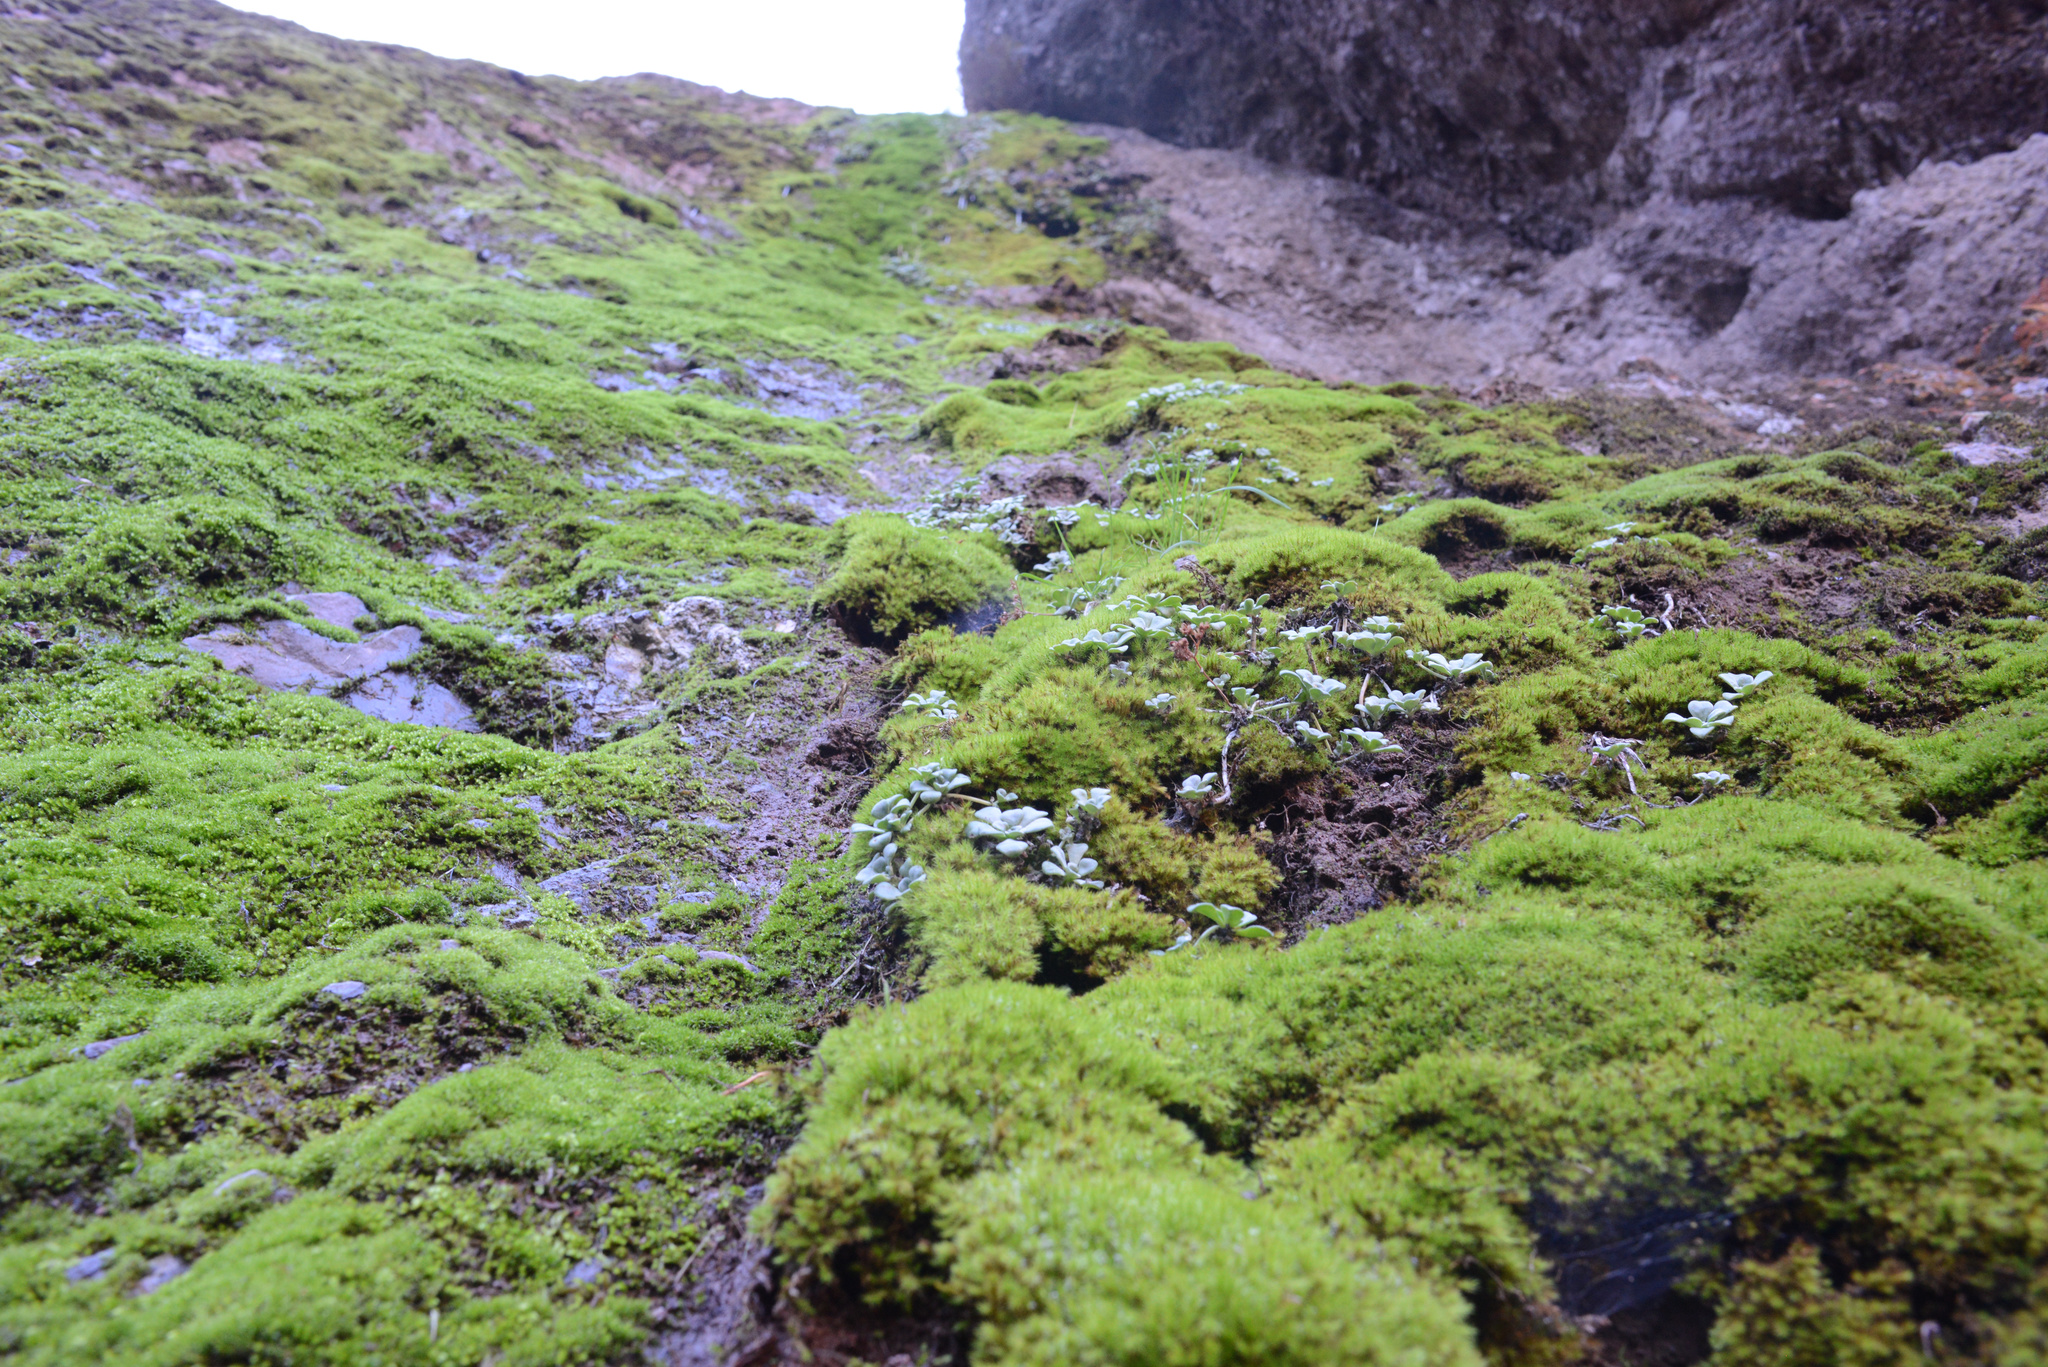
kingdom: Plantae
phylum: Tracheophyta
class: Magnoliopsida
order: Saxifragales
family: Crassulaceae
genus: Sedum
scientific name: Sedum spathulifolium
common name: Colorado stonecrop
